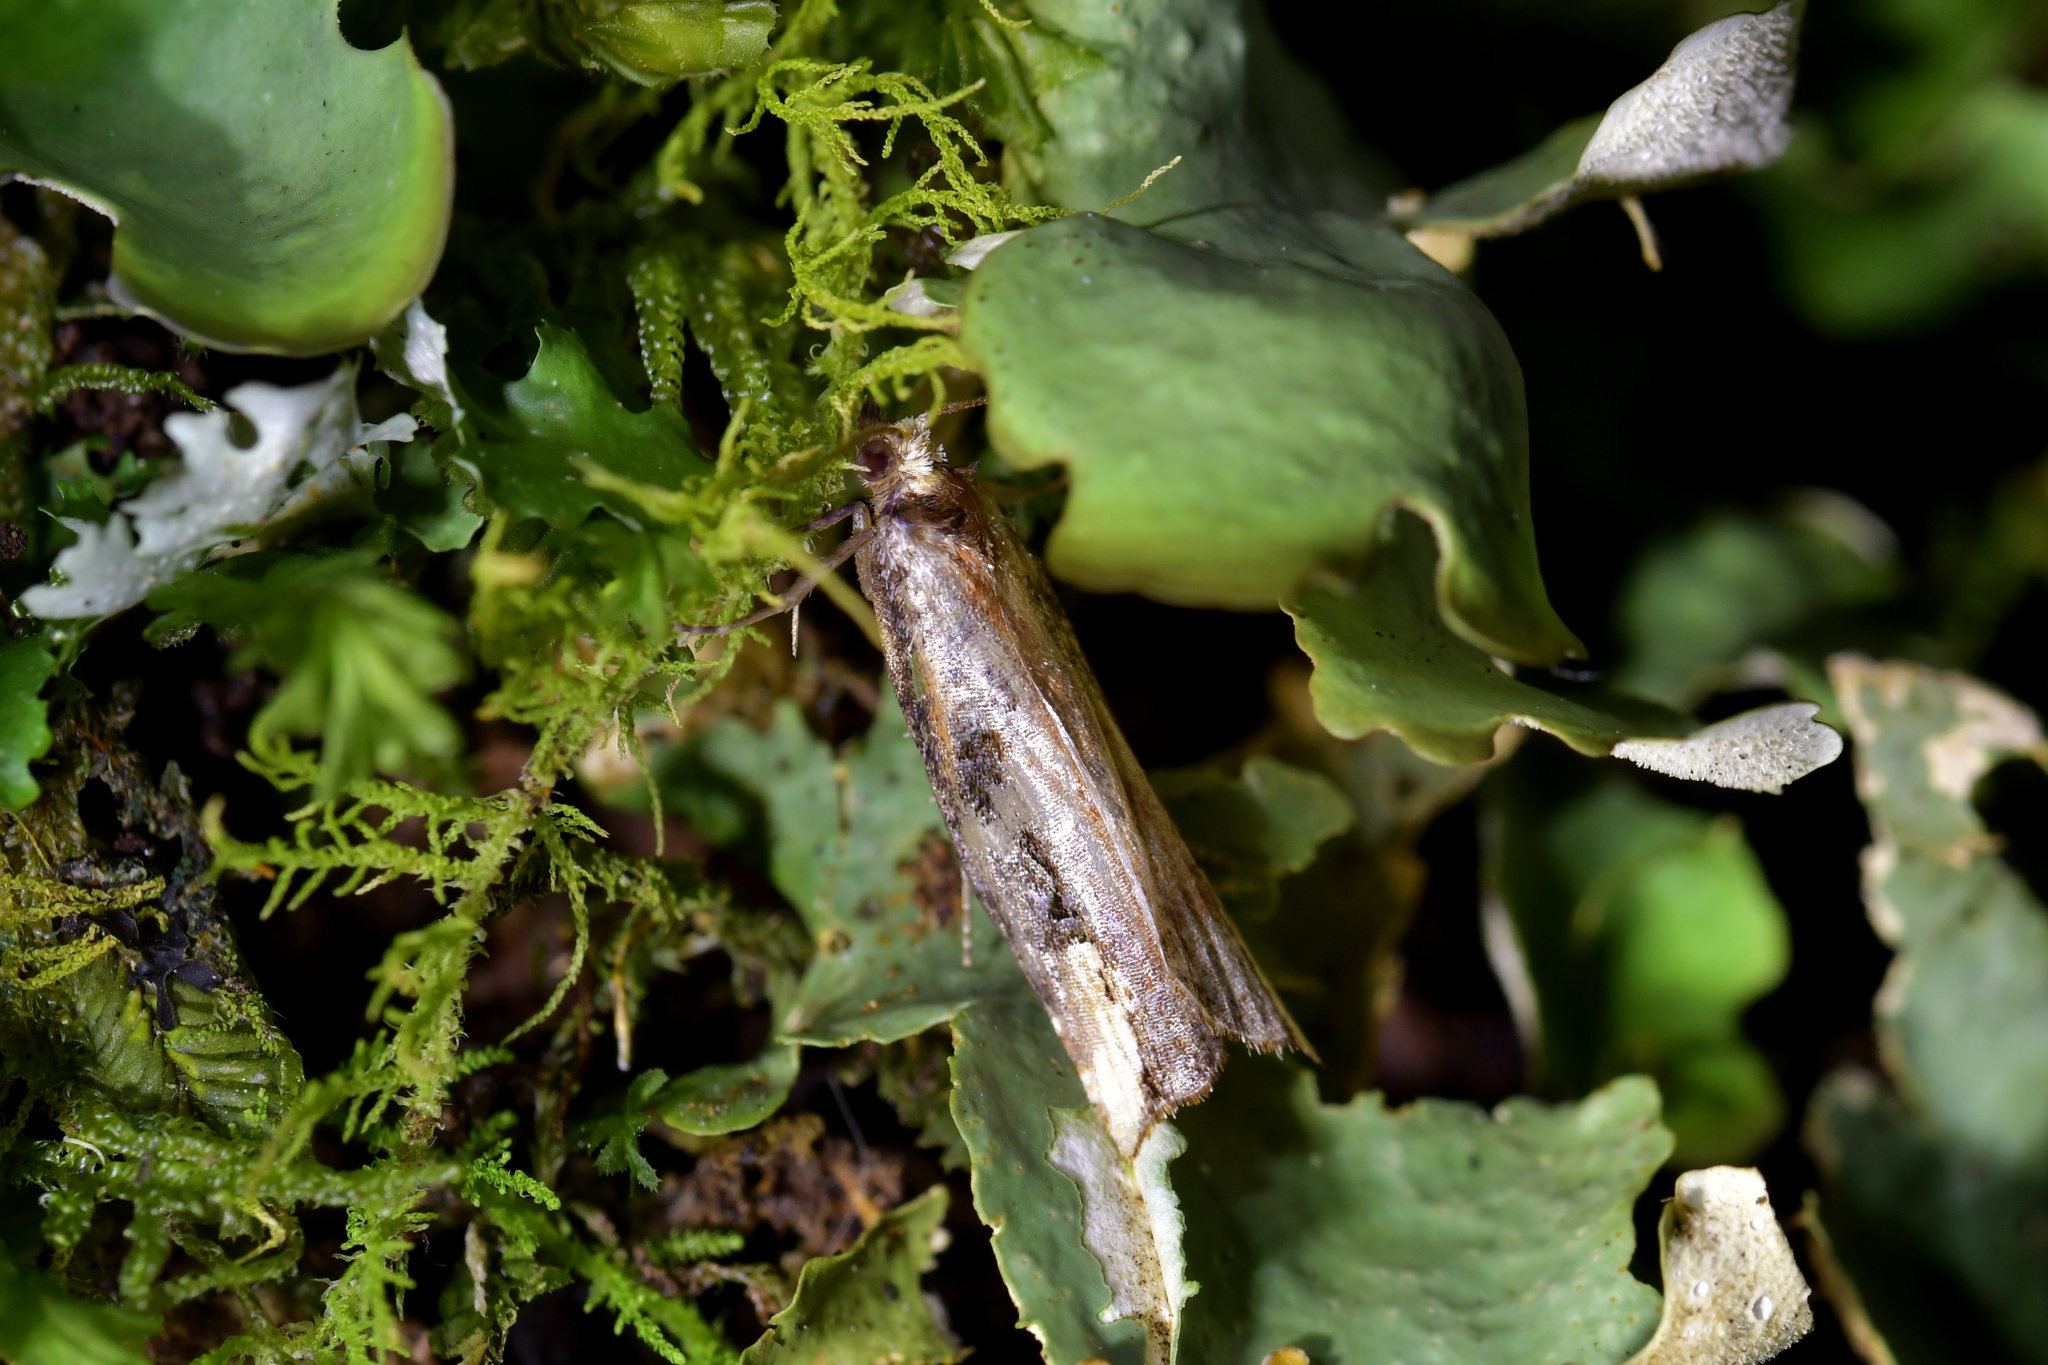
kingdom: Animalia
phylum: Arthropoda
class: Insecta
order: Lepidoptera
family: Tortricidae
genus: Epalxiphora
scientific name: Epalxiphora axenana
